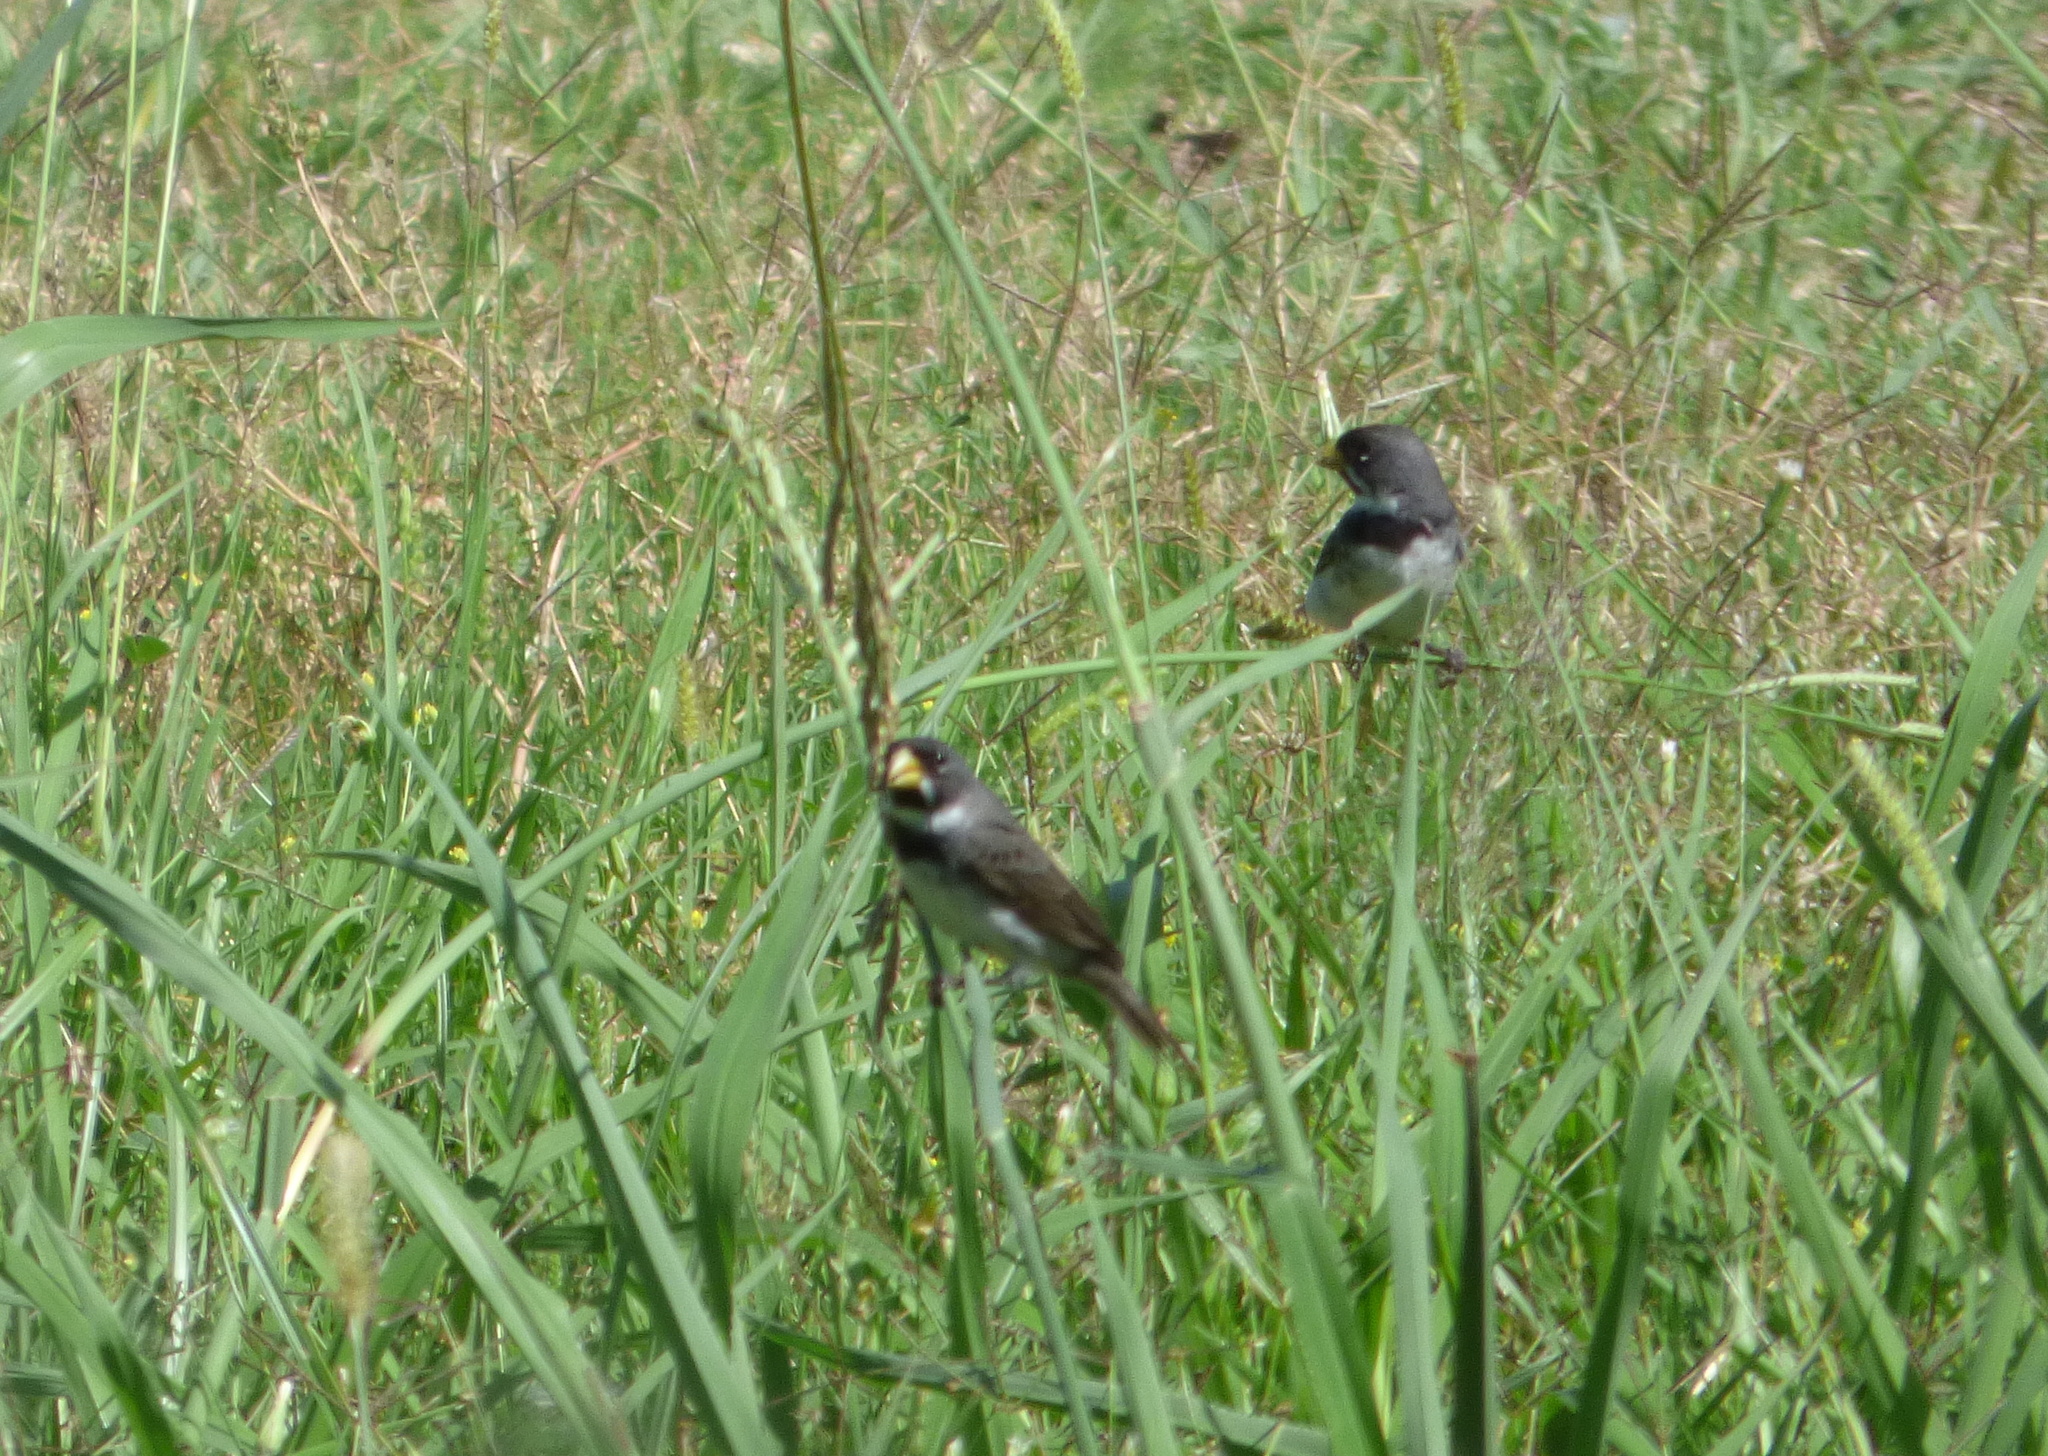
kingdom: Animalia
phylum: Chordata
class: Aves
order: Passeriformes
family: Thraupidae
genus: Sporophila
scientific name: Sporophila caerulescens
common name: Double-collared seedeater
